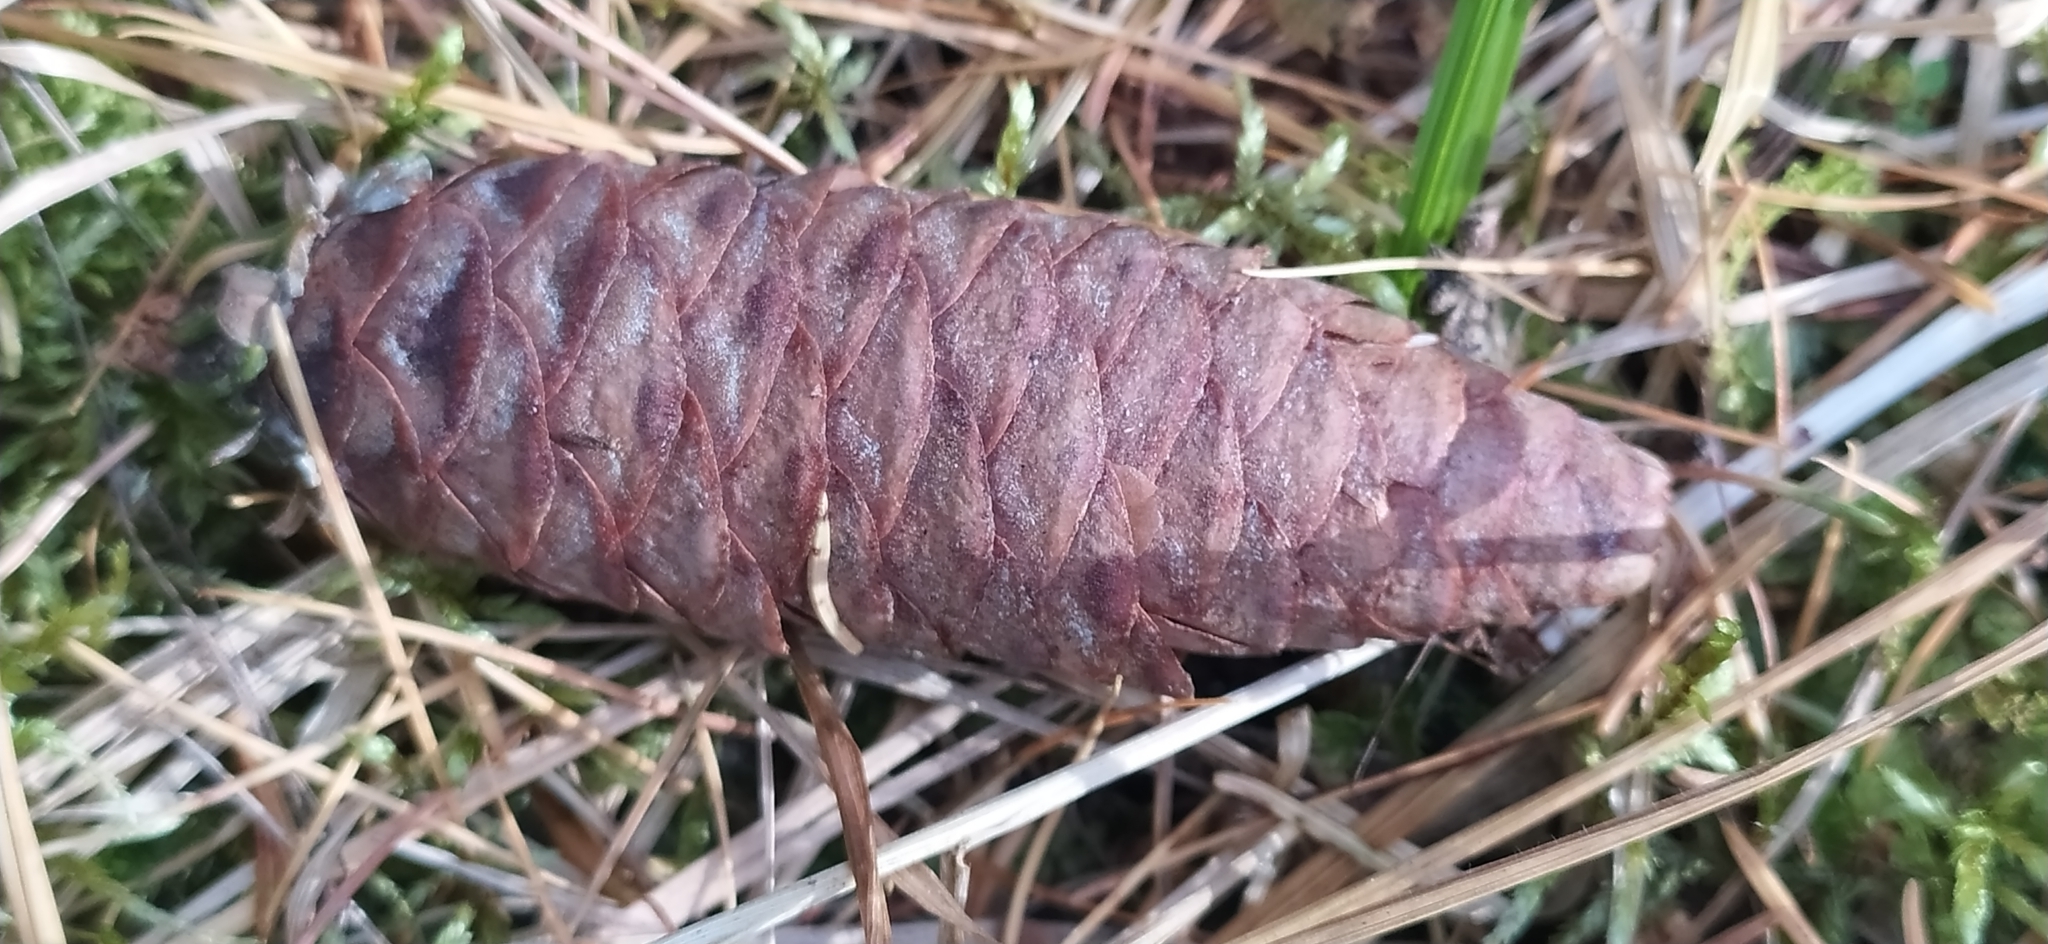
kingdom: Plantae
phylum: Tracheophyta
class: Pinopsida
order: Pinales
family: Pinaceae
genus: Picea
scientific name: Picea obovata
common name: Siberian spruce
